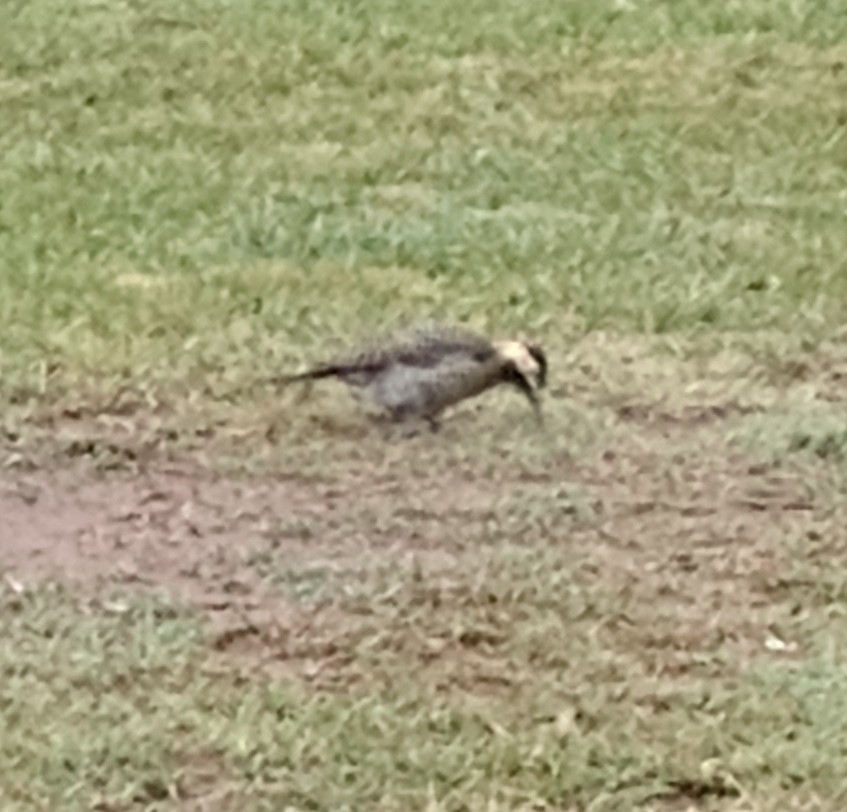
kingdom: Animalia
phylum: Chordata
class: Aves
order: Piciformes
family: Picidae
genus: Colaptes
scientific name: Colaptes melanochloros
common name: Green-barred woodpecker
